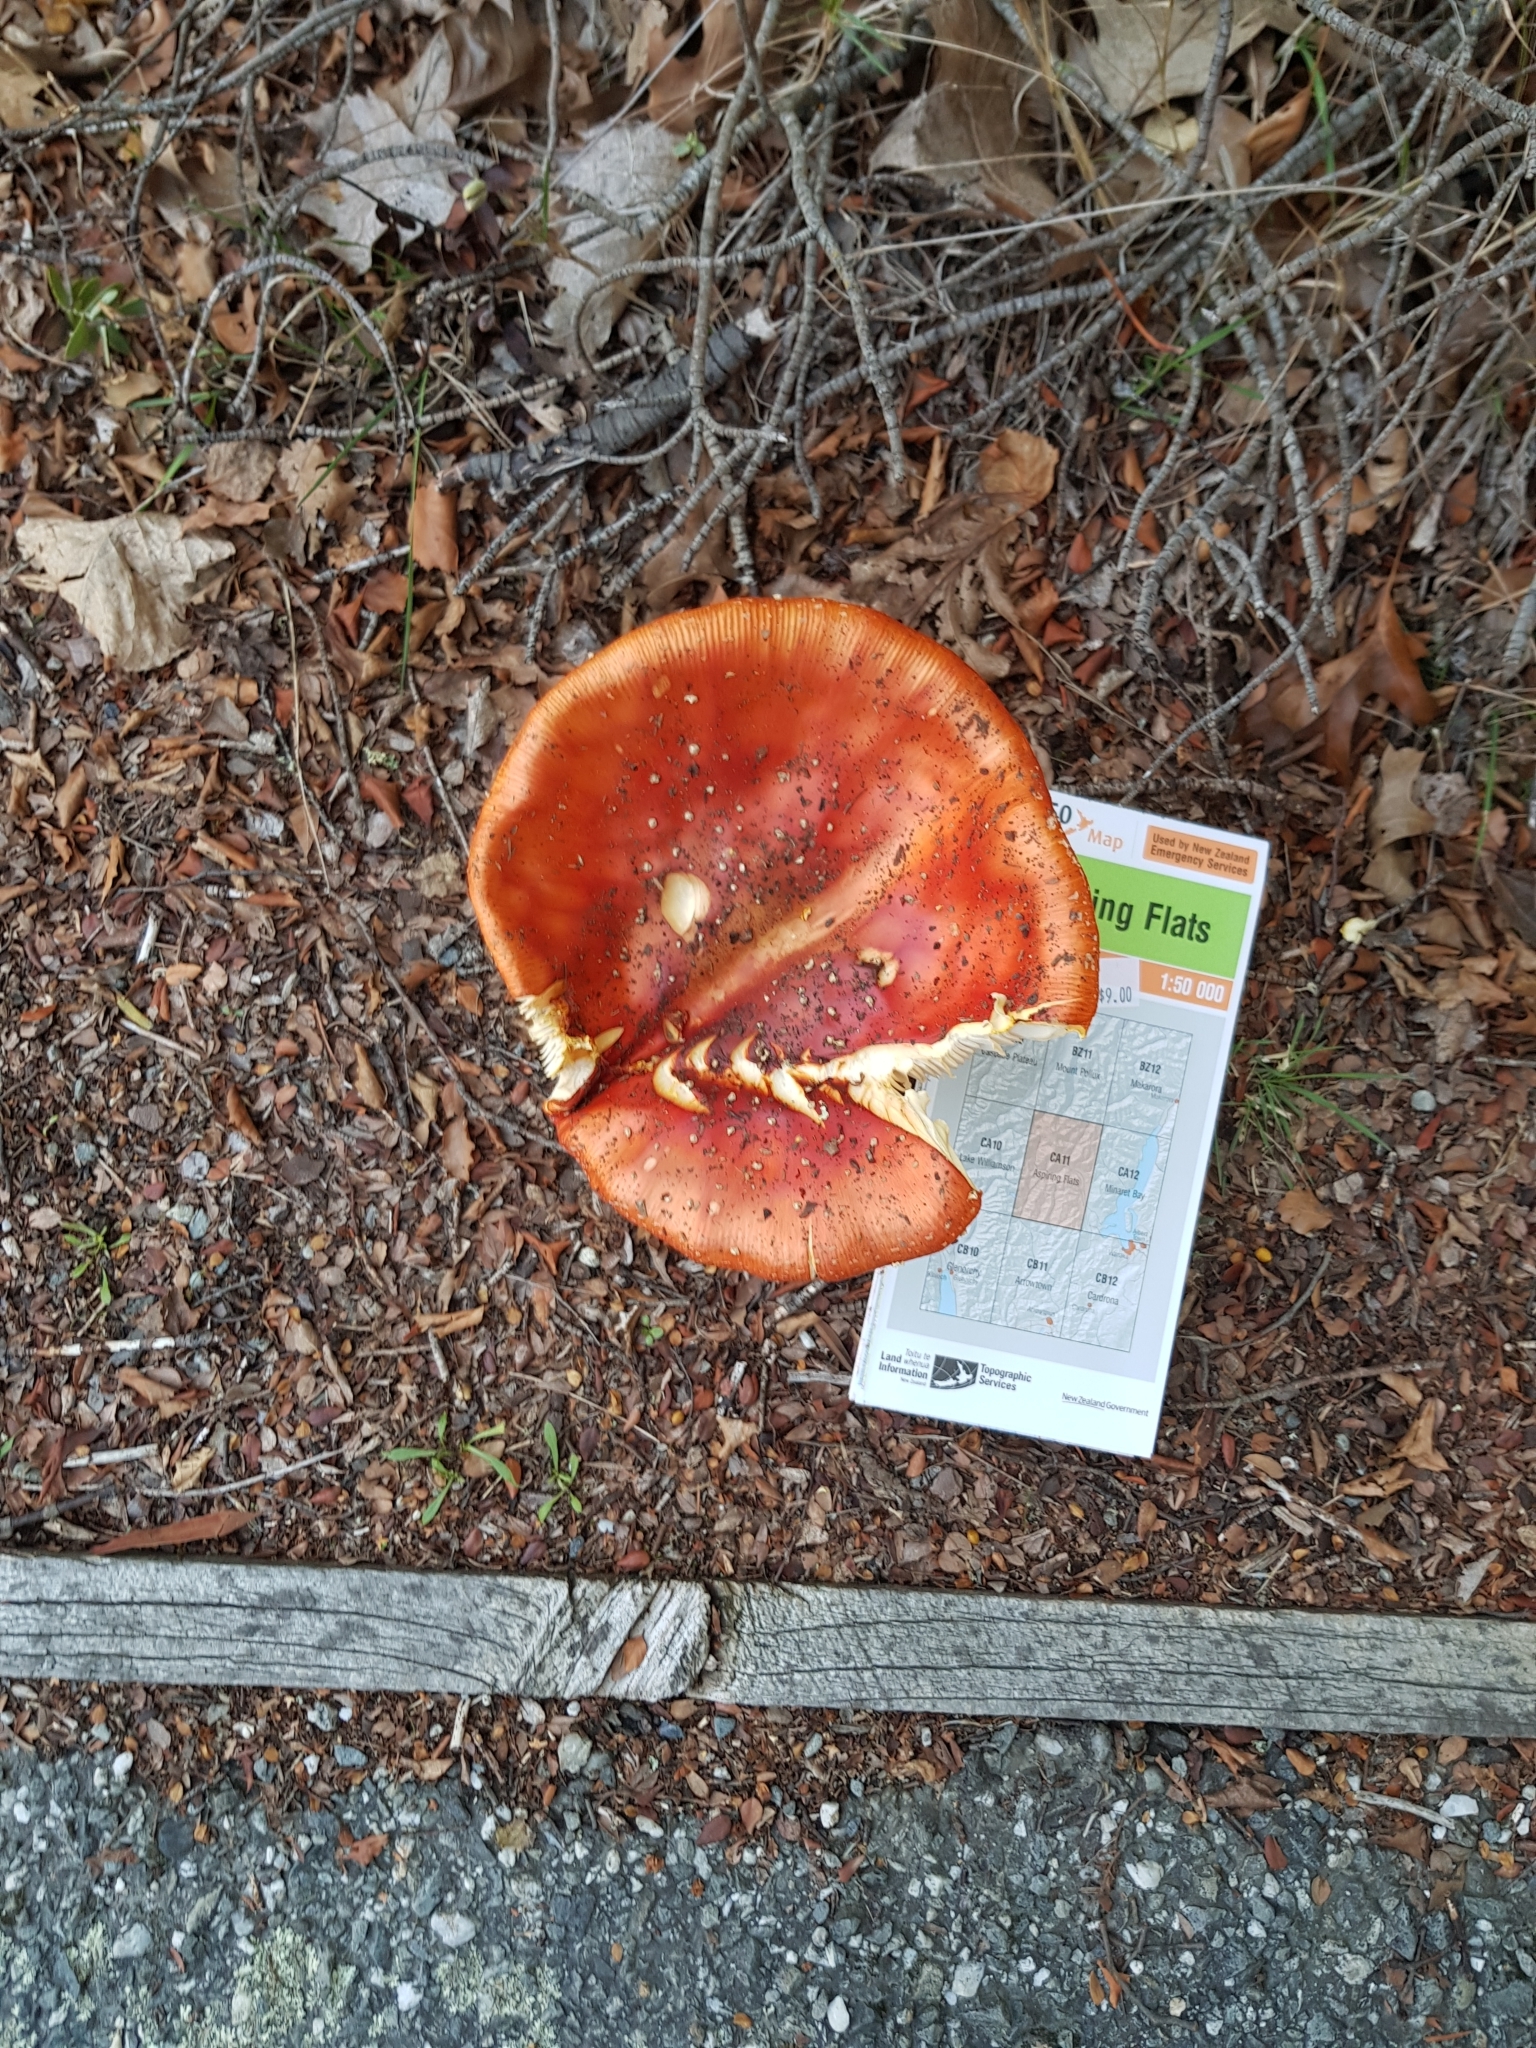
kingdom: Fungi
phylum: Basidiomycota
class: Agaricomycetes
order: Agaricales
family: Amanitaceae
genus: Amanita
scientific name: Amanita muscaria
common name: Fly agaric
